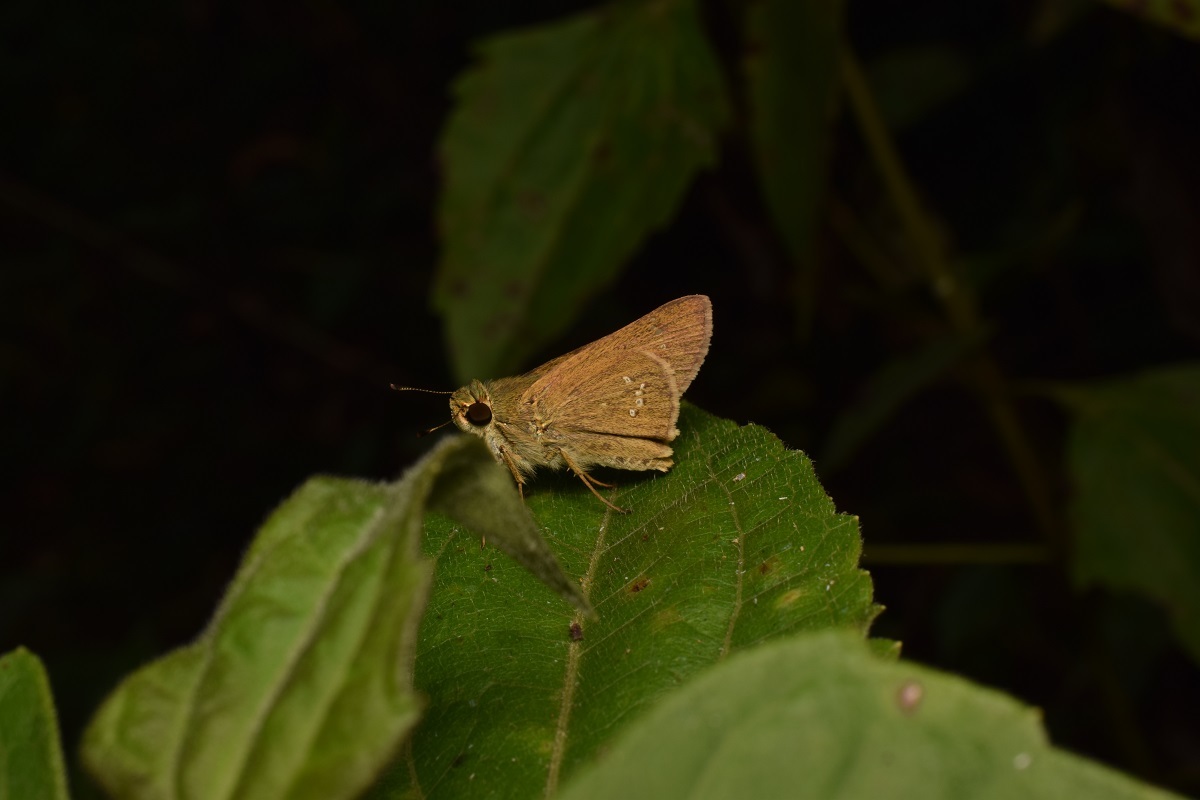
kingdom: Animalia
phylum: Arthropoda
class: Insecta
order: Lepidoptera
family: Hesperiidae
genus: Pelopidas
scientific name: Pelopidas agna
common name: Little branded swift
